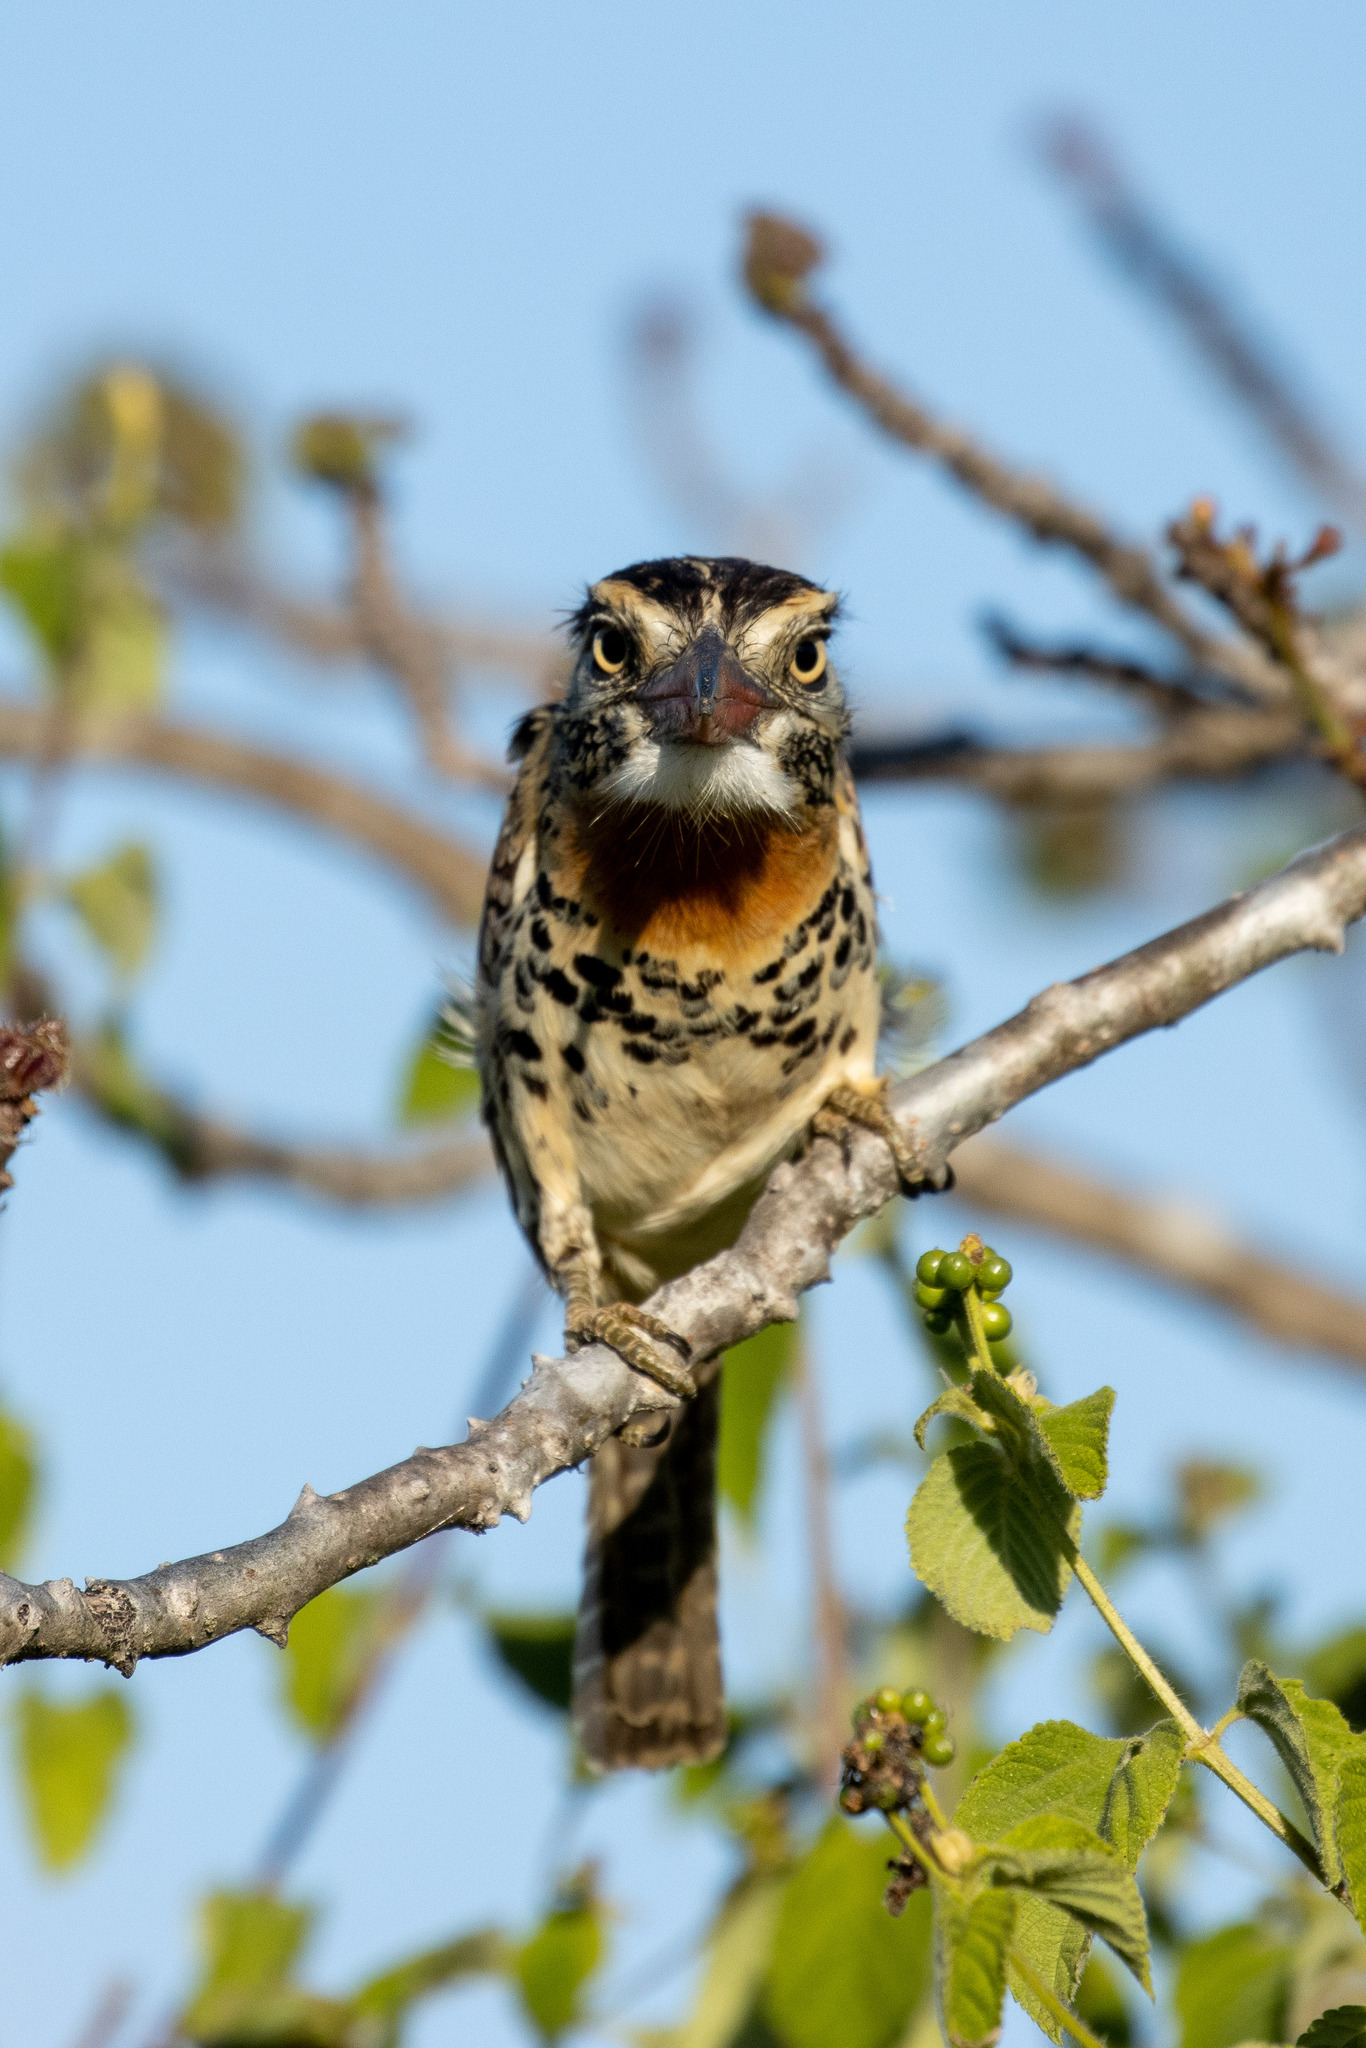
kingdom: Animalia
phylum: Chordata
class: Aves
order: Piciformes
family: Bucconidae
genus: Nystalus
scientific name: Nystalus maculatus
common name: Caatinga puffbird
